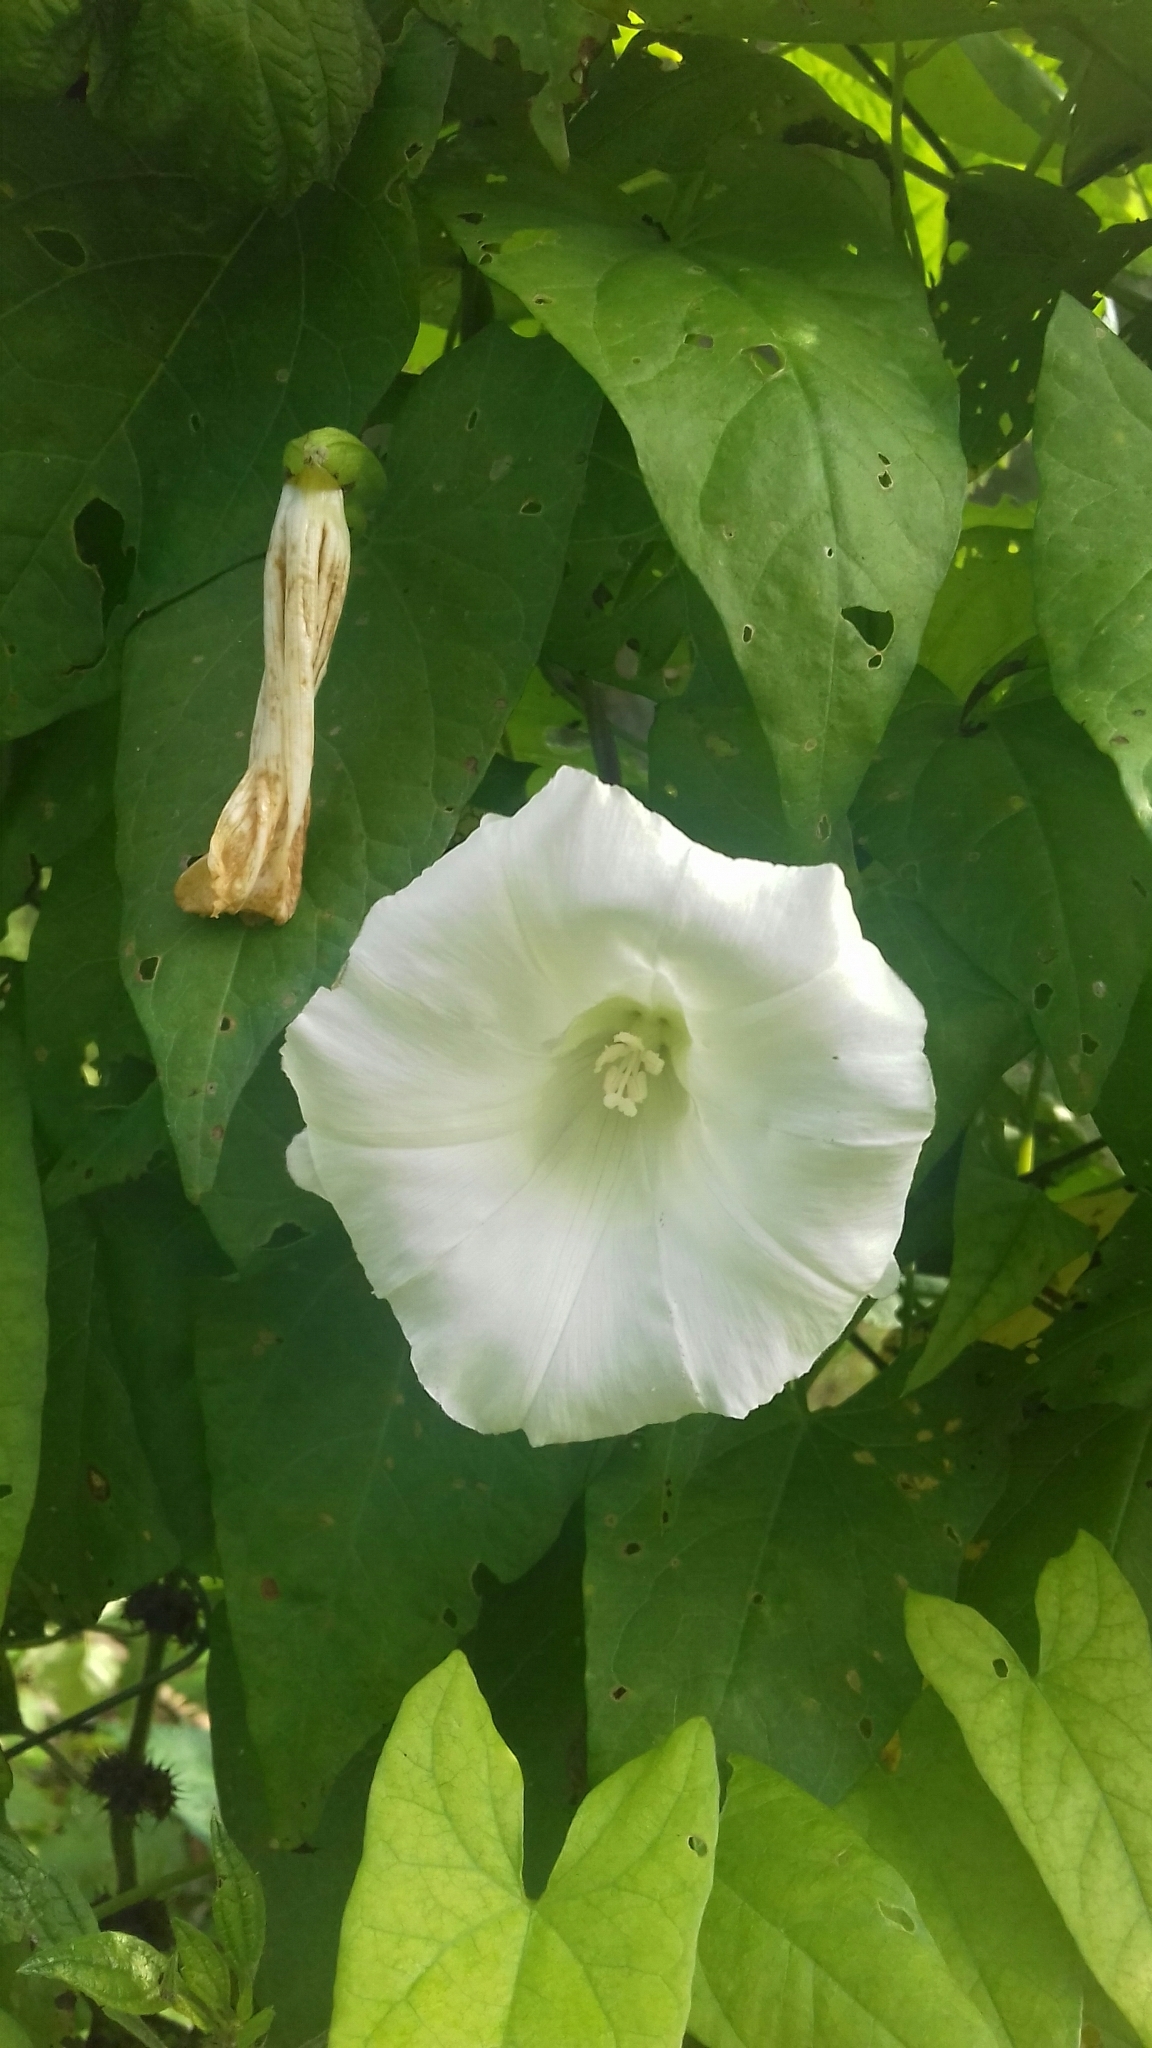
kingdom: Plantae
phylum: Tracheophyta
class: Magnoliopsida
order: Solanales
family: Convolvulaceae
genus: Calystegia
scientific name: Calystegia sepium
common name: Hedge bindweed
